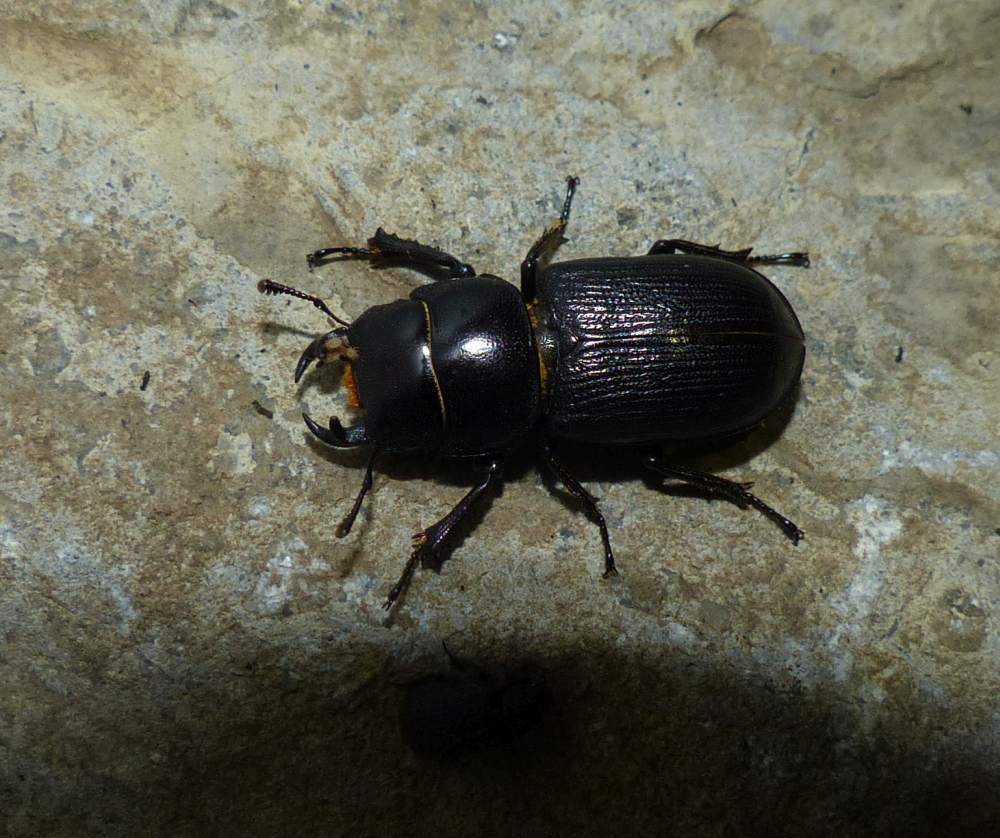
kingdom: Animalia
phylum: Arthropoda
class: Insecta
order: Coleoptera
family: Lucanidae
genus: Dorcus
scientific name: Dorcus parallelus
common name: Antelope beetle
